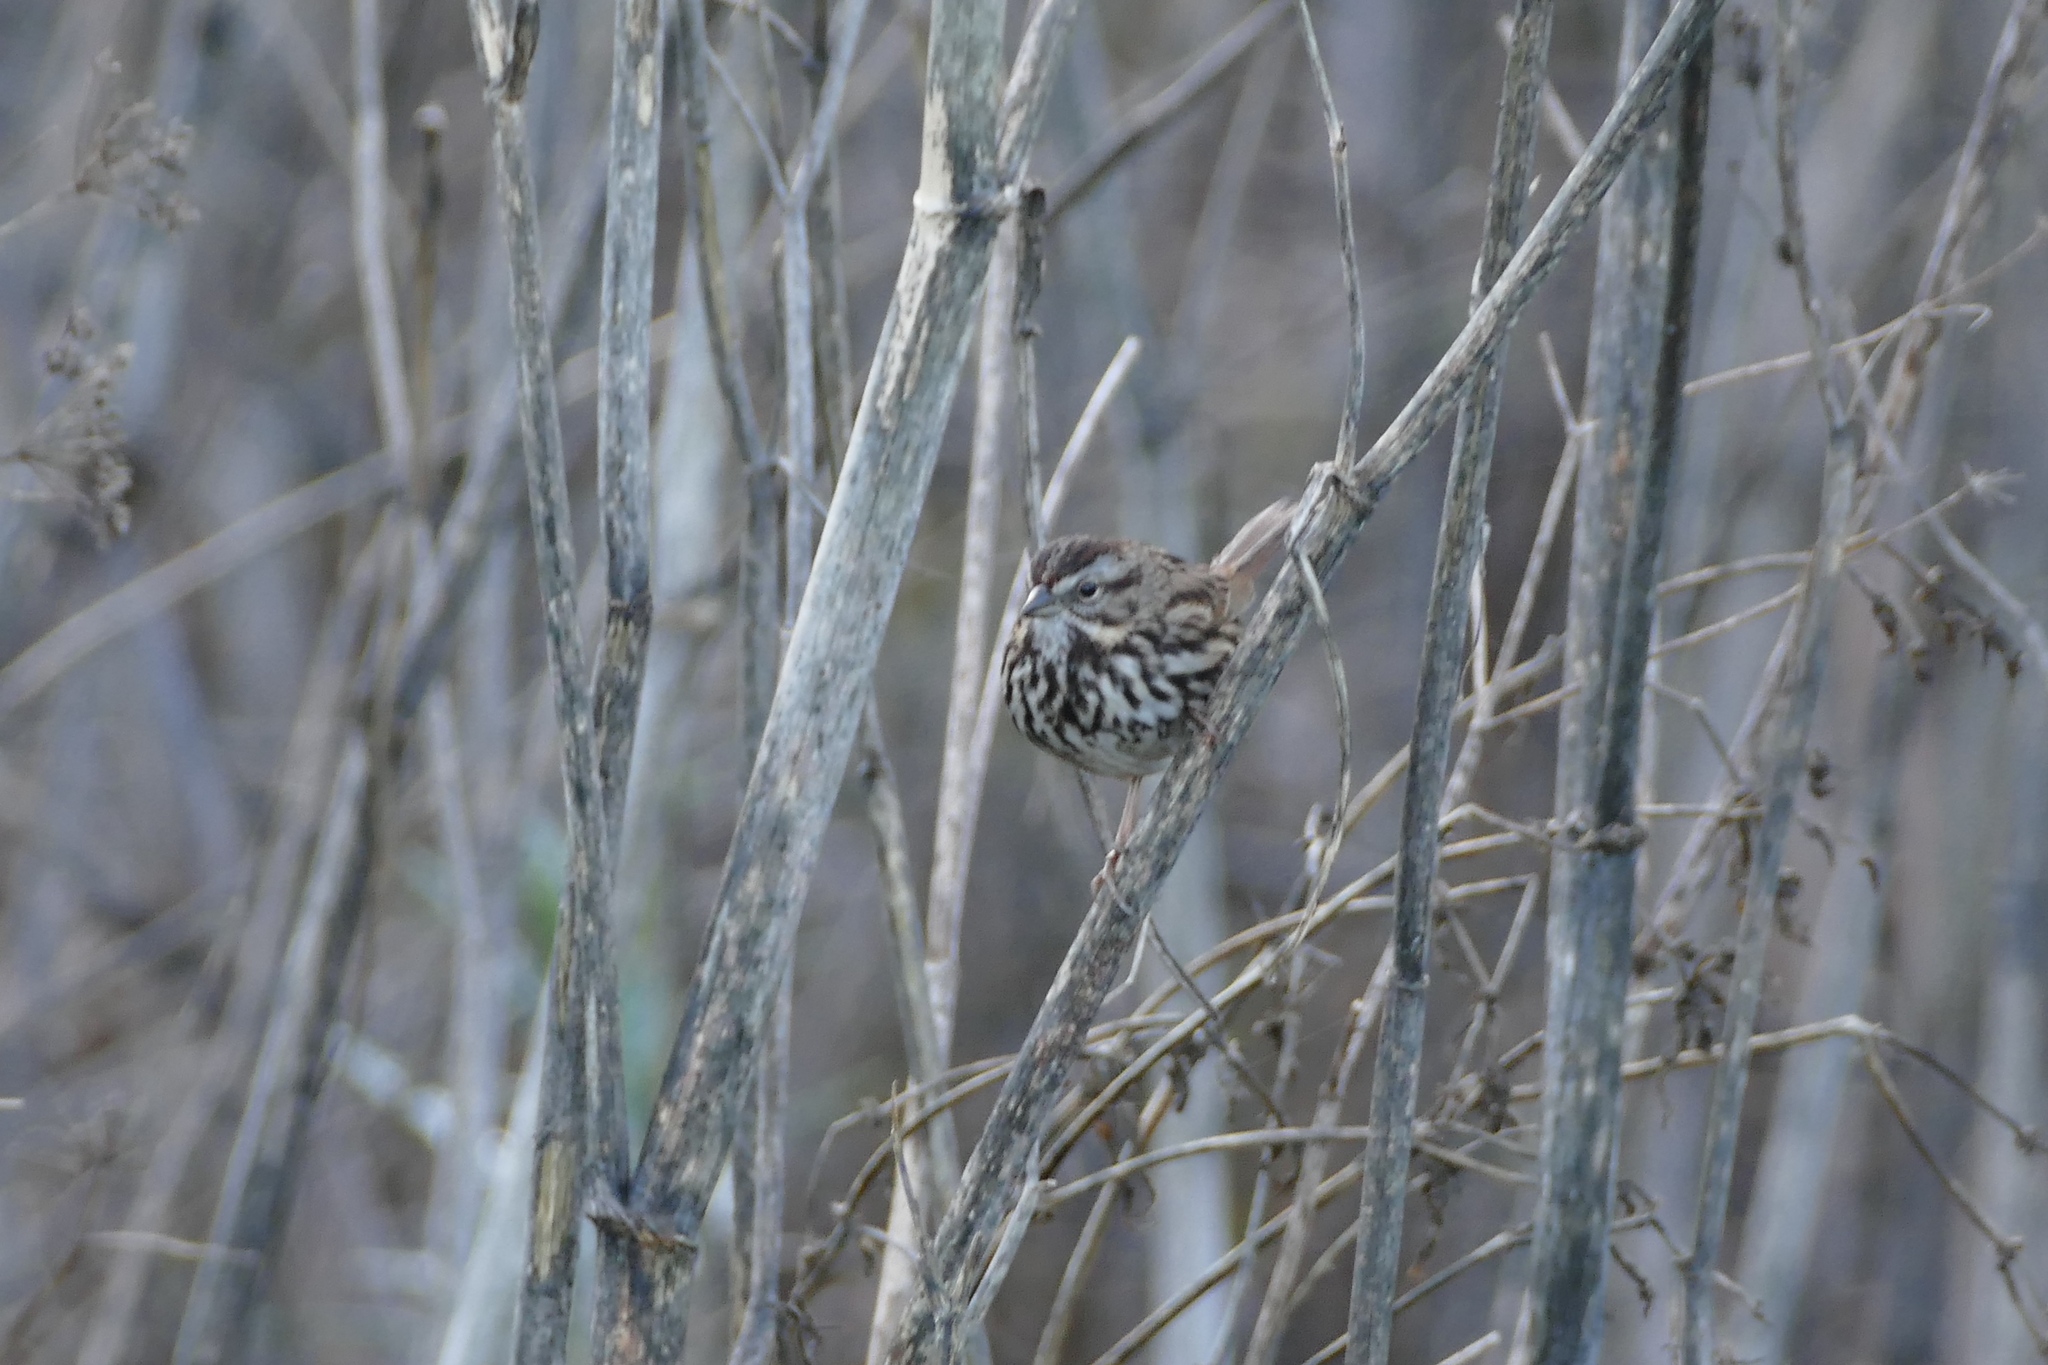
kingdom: Animalia
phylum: Chordata
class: Aves
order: Passeriformes
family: Passerellidae
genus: Melospiza
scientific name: Melospiza melodia
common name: Song sparrow
